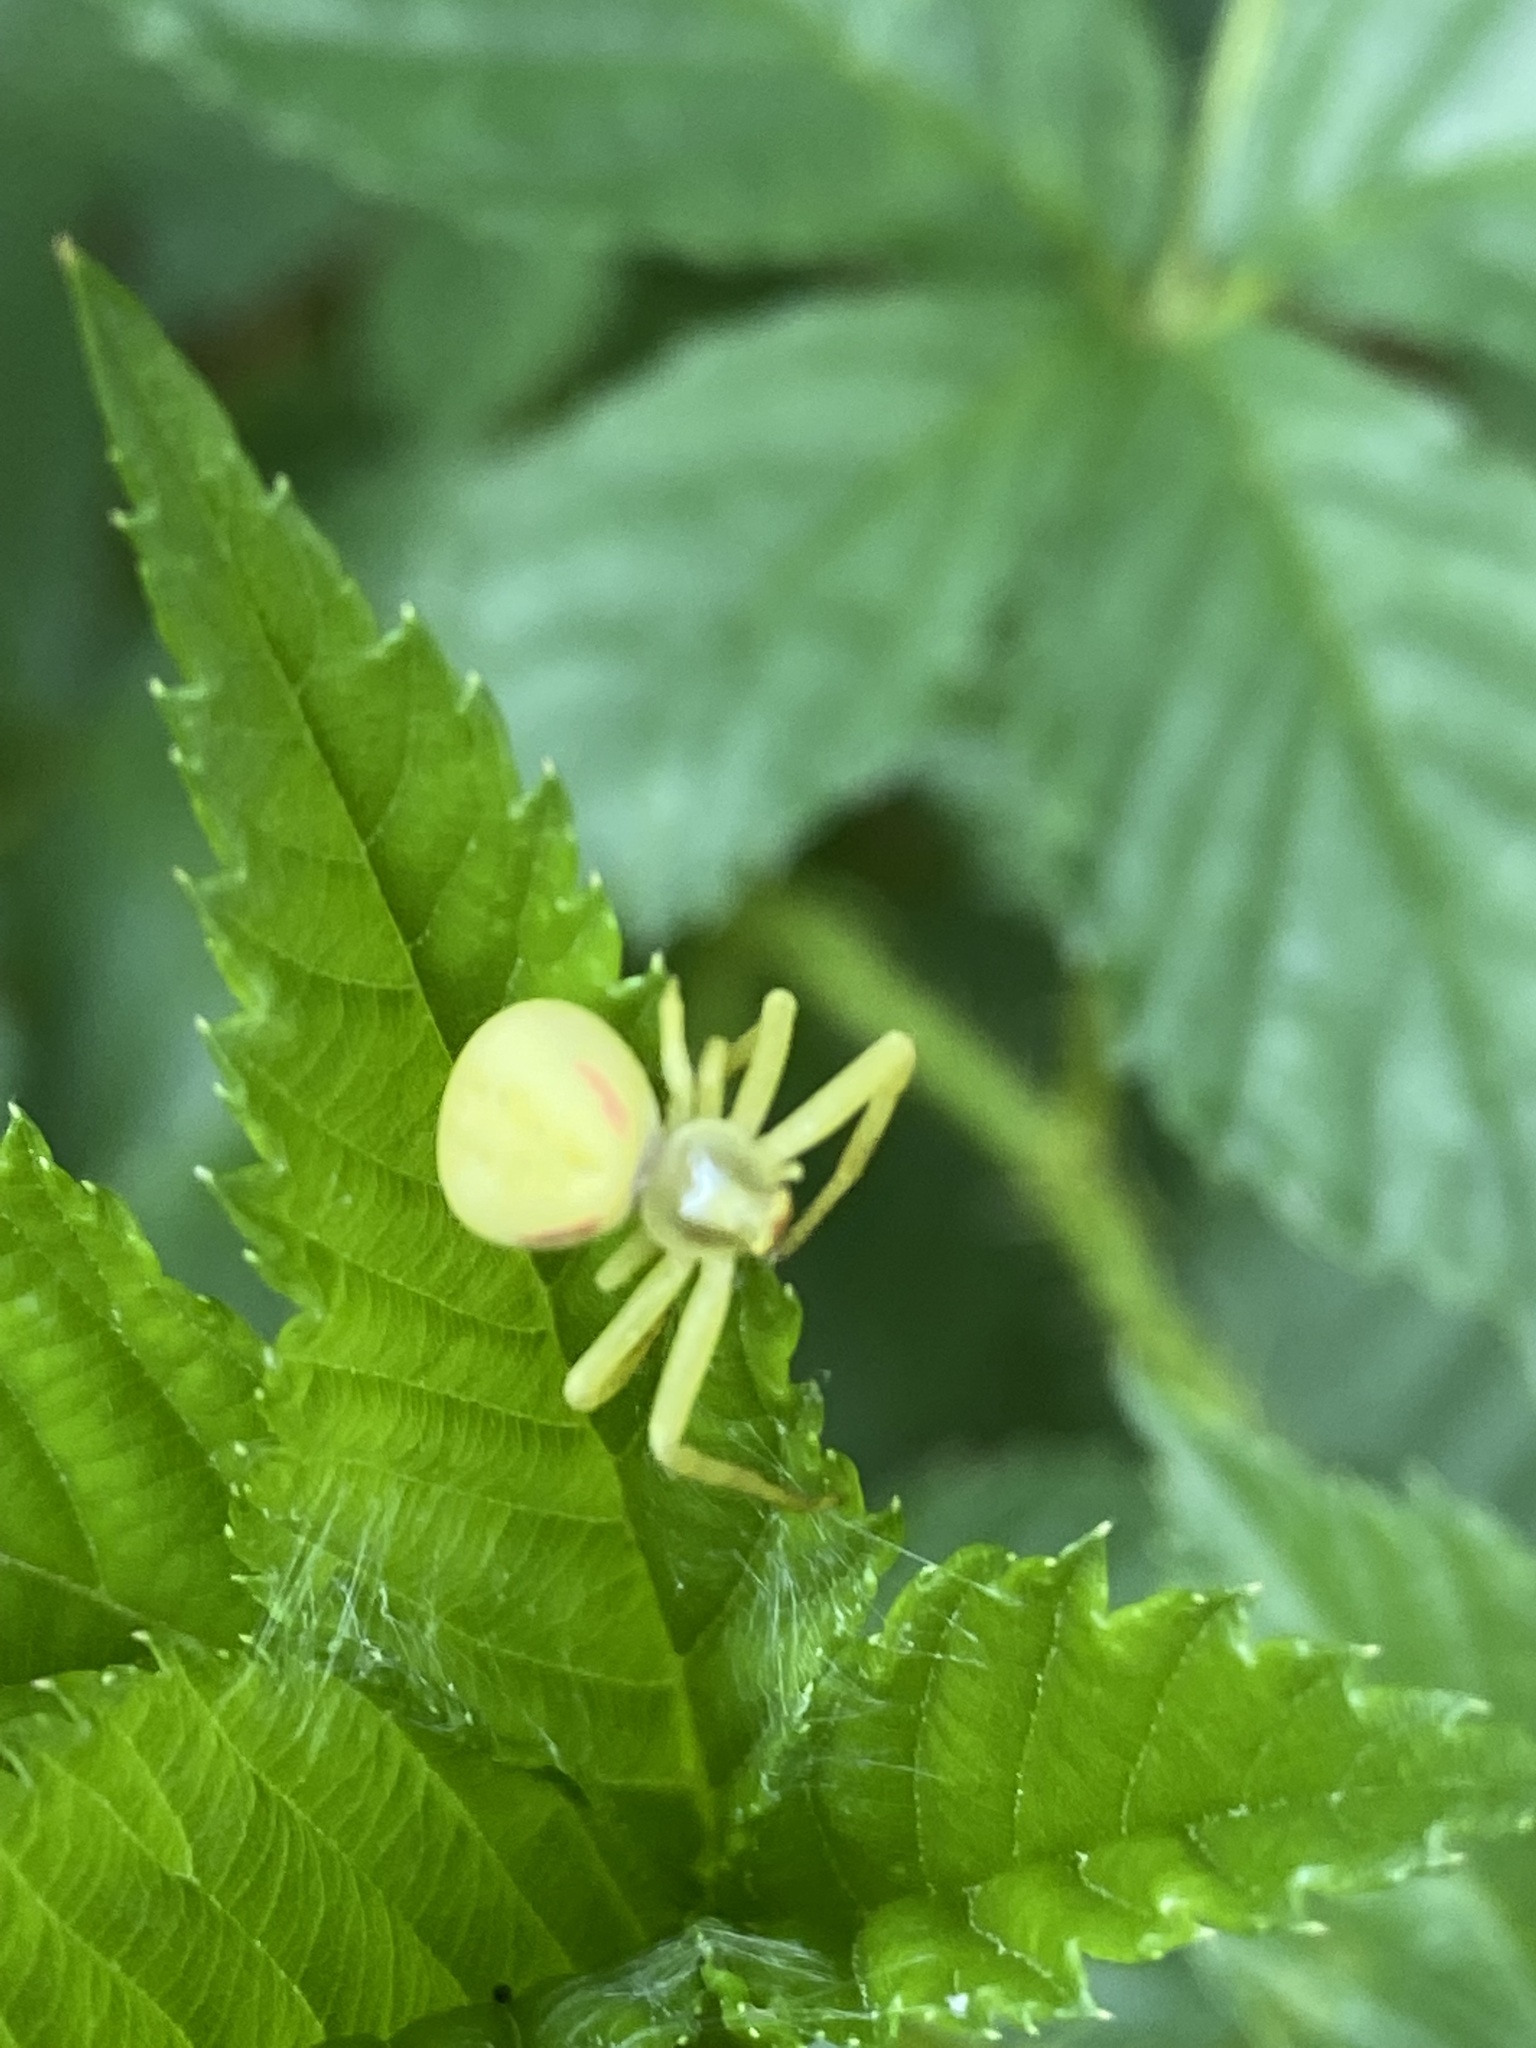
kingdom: Animalia
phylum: Arthropoda
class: Arachnida
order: Araneae
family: Thomisidae
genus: Misumena
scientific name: Misumena vatia
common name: Goldenrod crab spider
